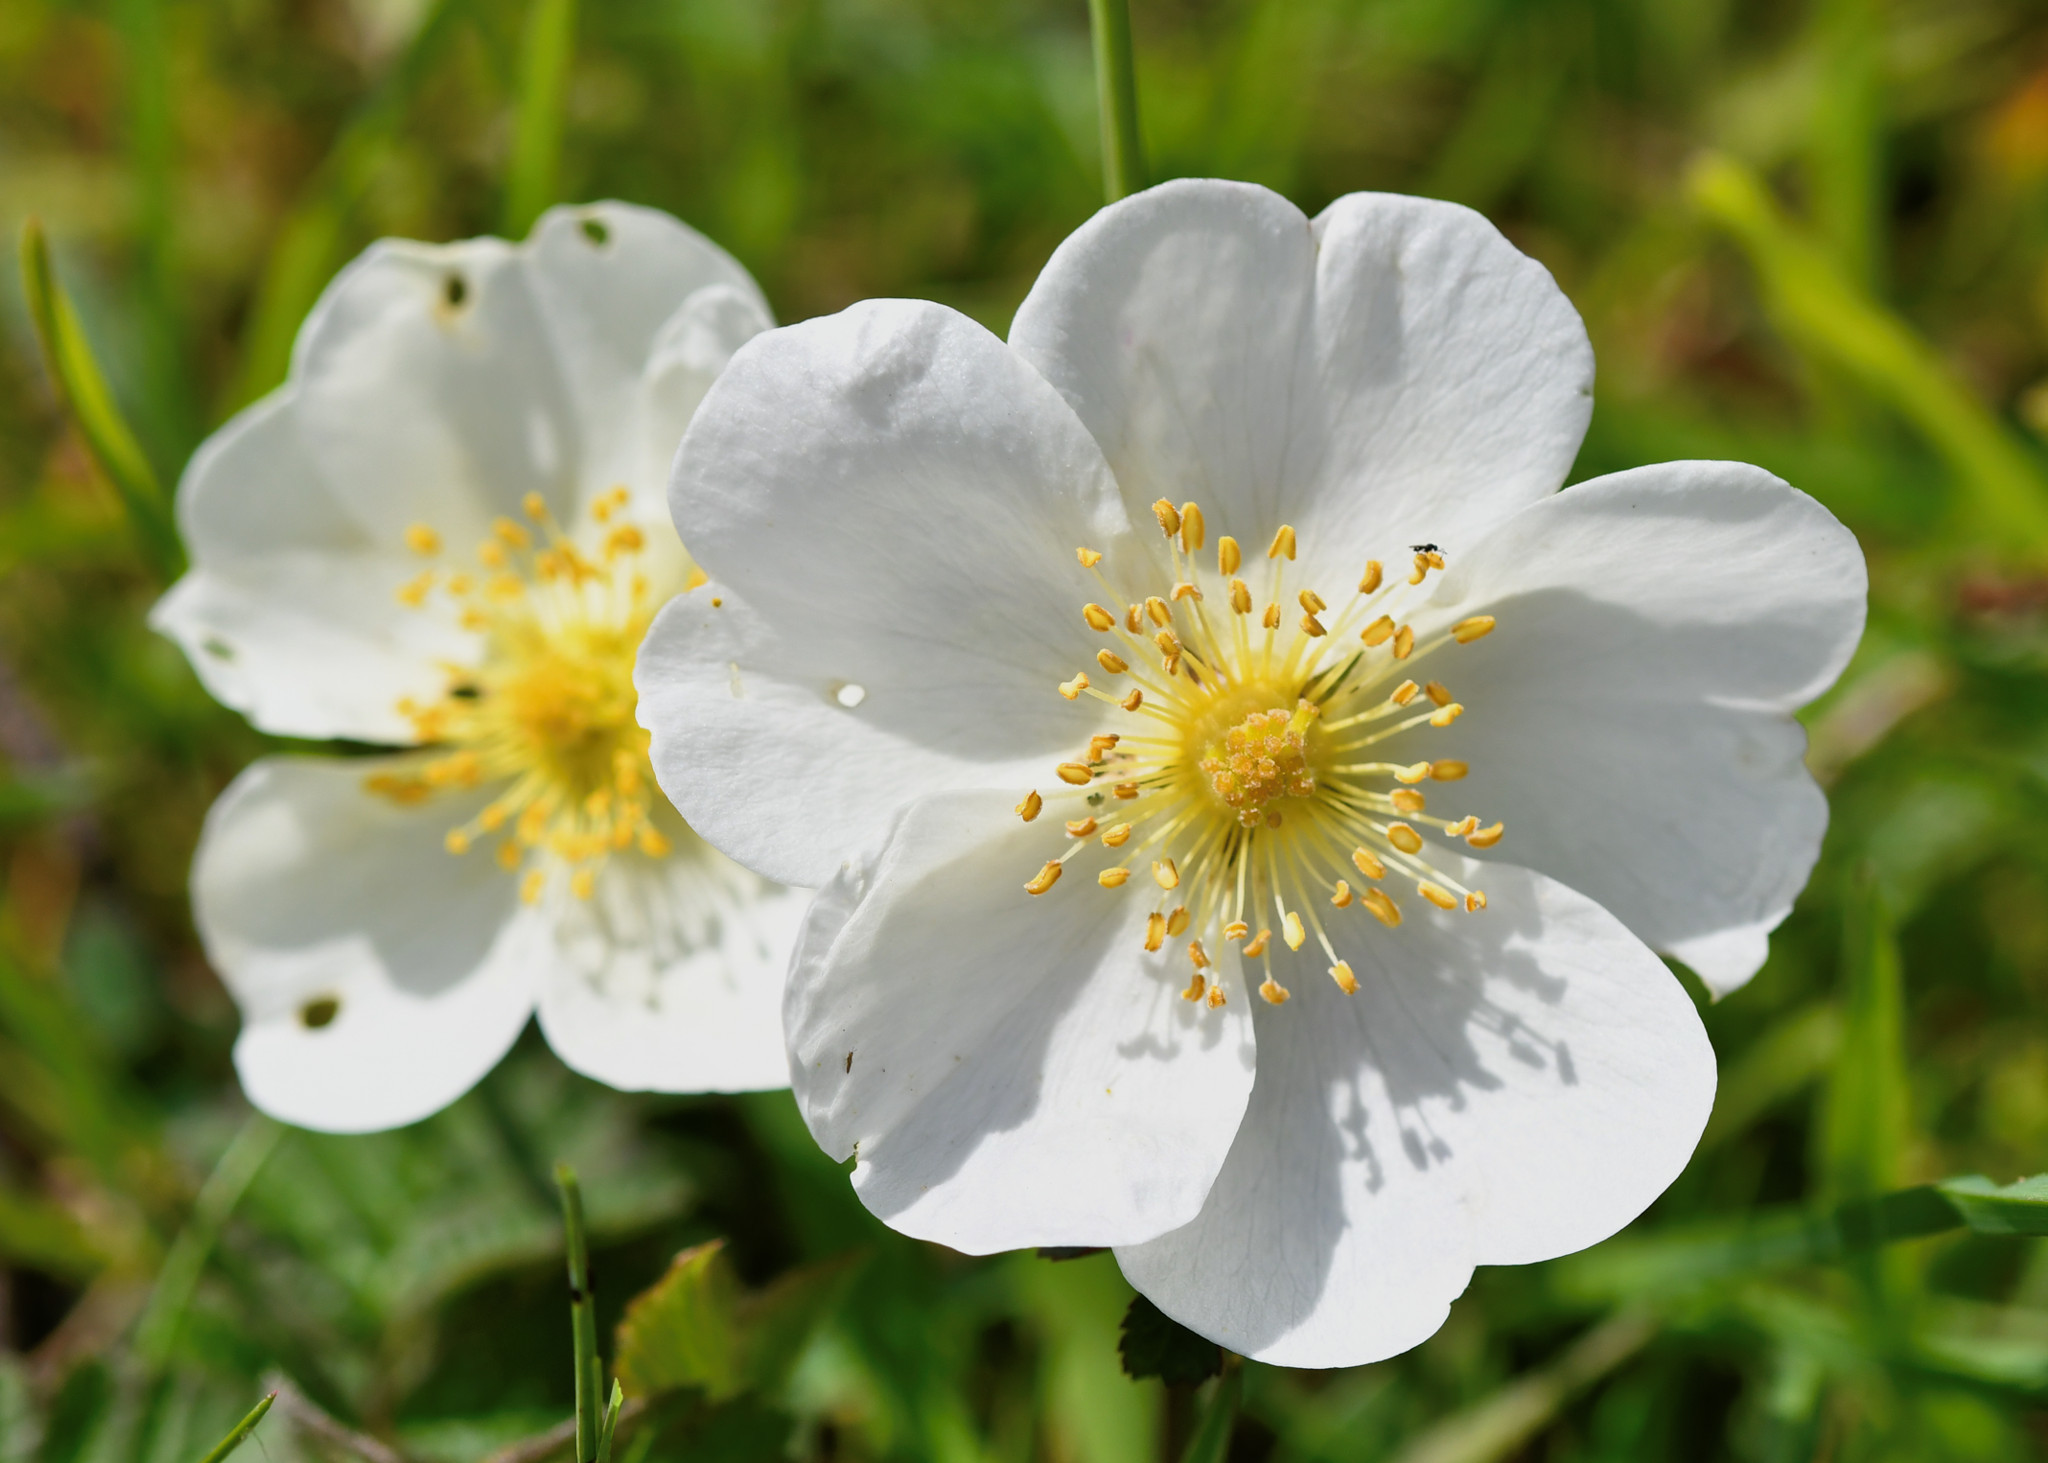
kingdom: Plantae
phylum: Tracheophyta
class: Magnoliopsida
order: Rosales
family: Rosaceae
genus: Rosa
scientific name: Rosa spinosissima
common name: Burnet rose
